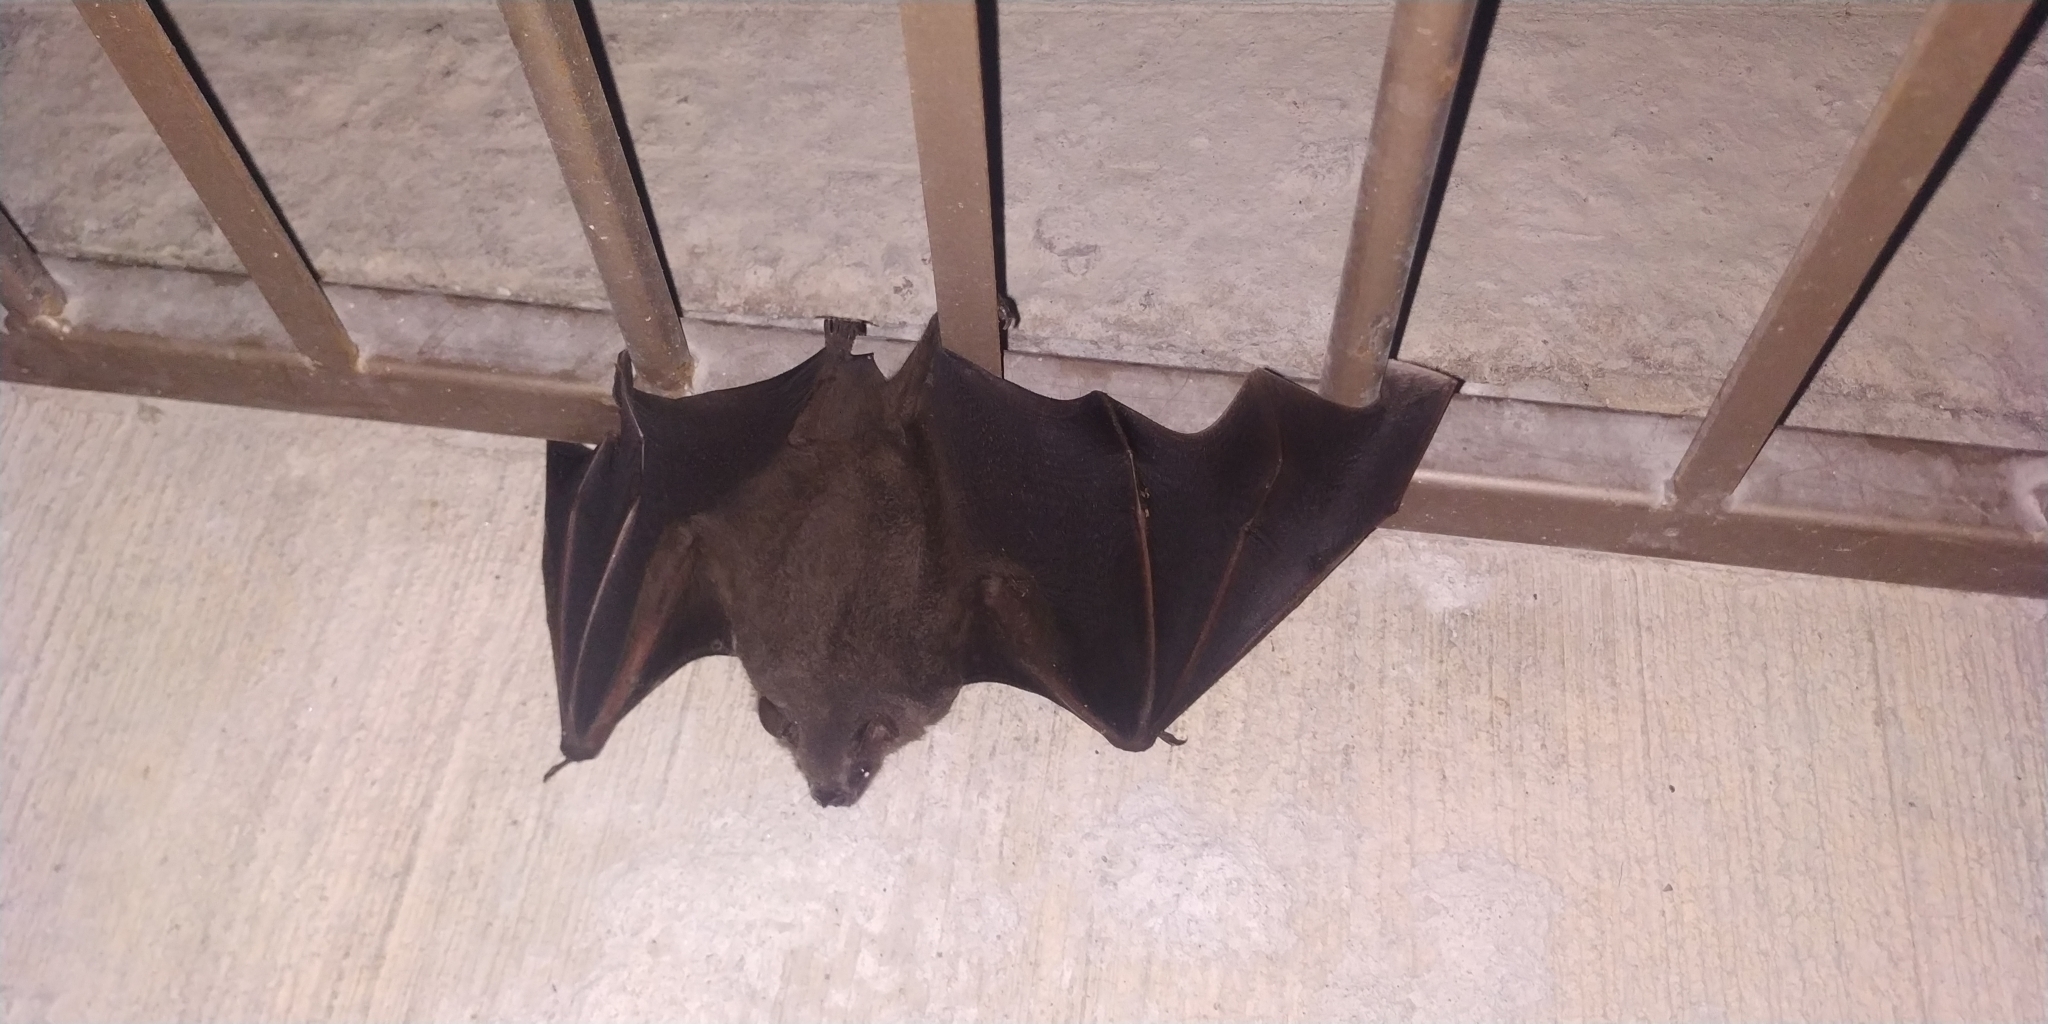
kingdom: Animalia
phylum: Chordata
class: Mammalia
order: Chiroptera
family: Phyllostomidae
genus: Artibeus
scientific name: Artibeus jamaicensis
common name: Jamaican fruit-eating bat
